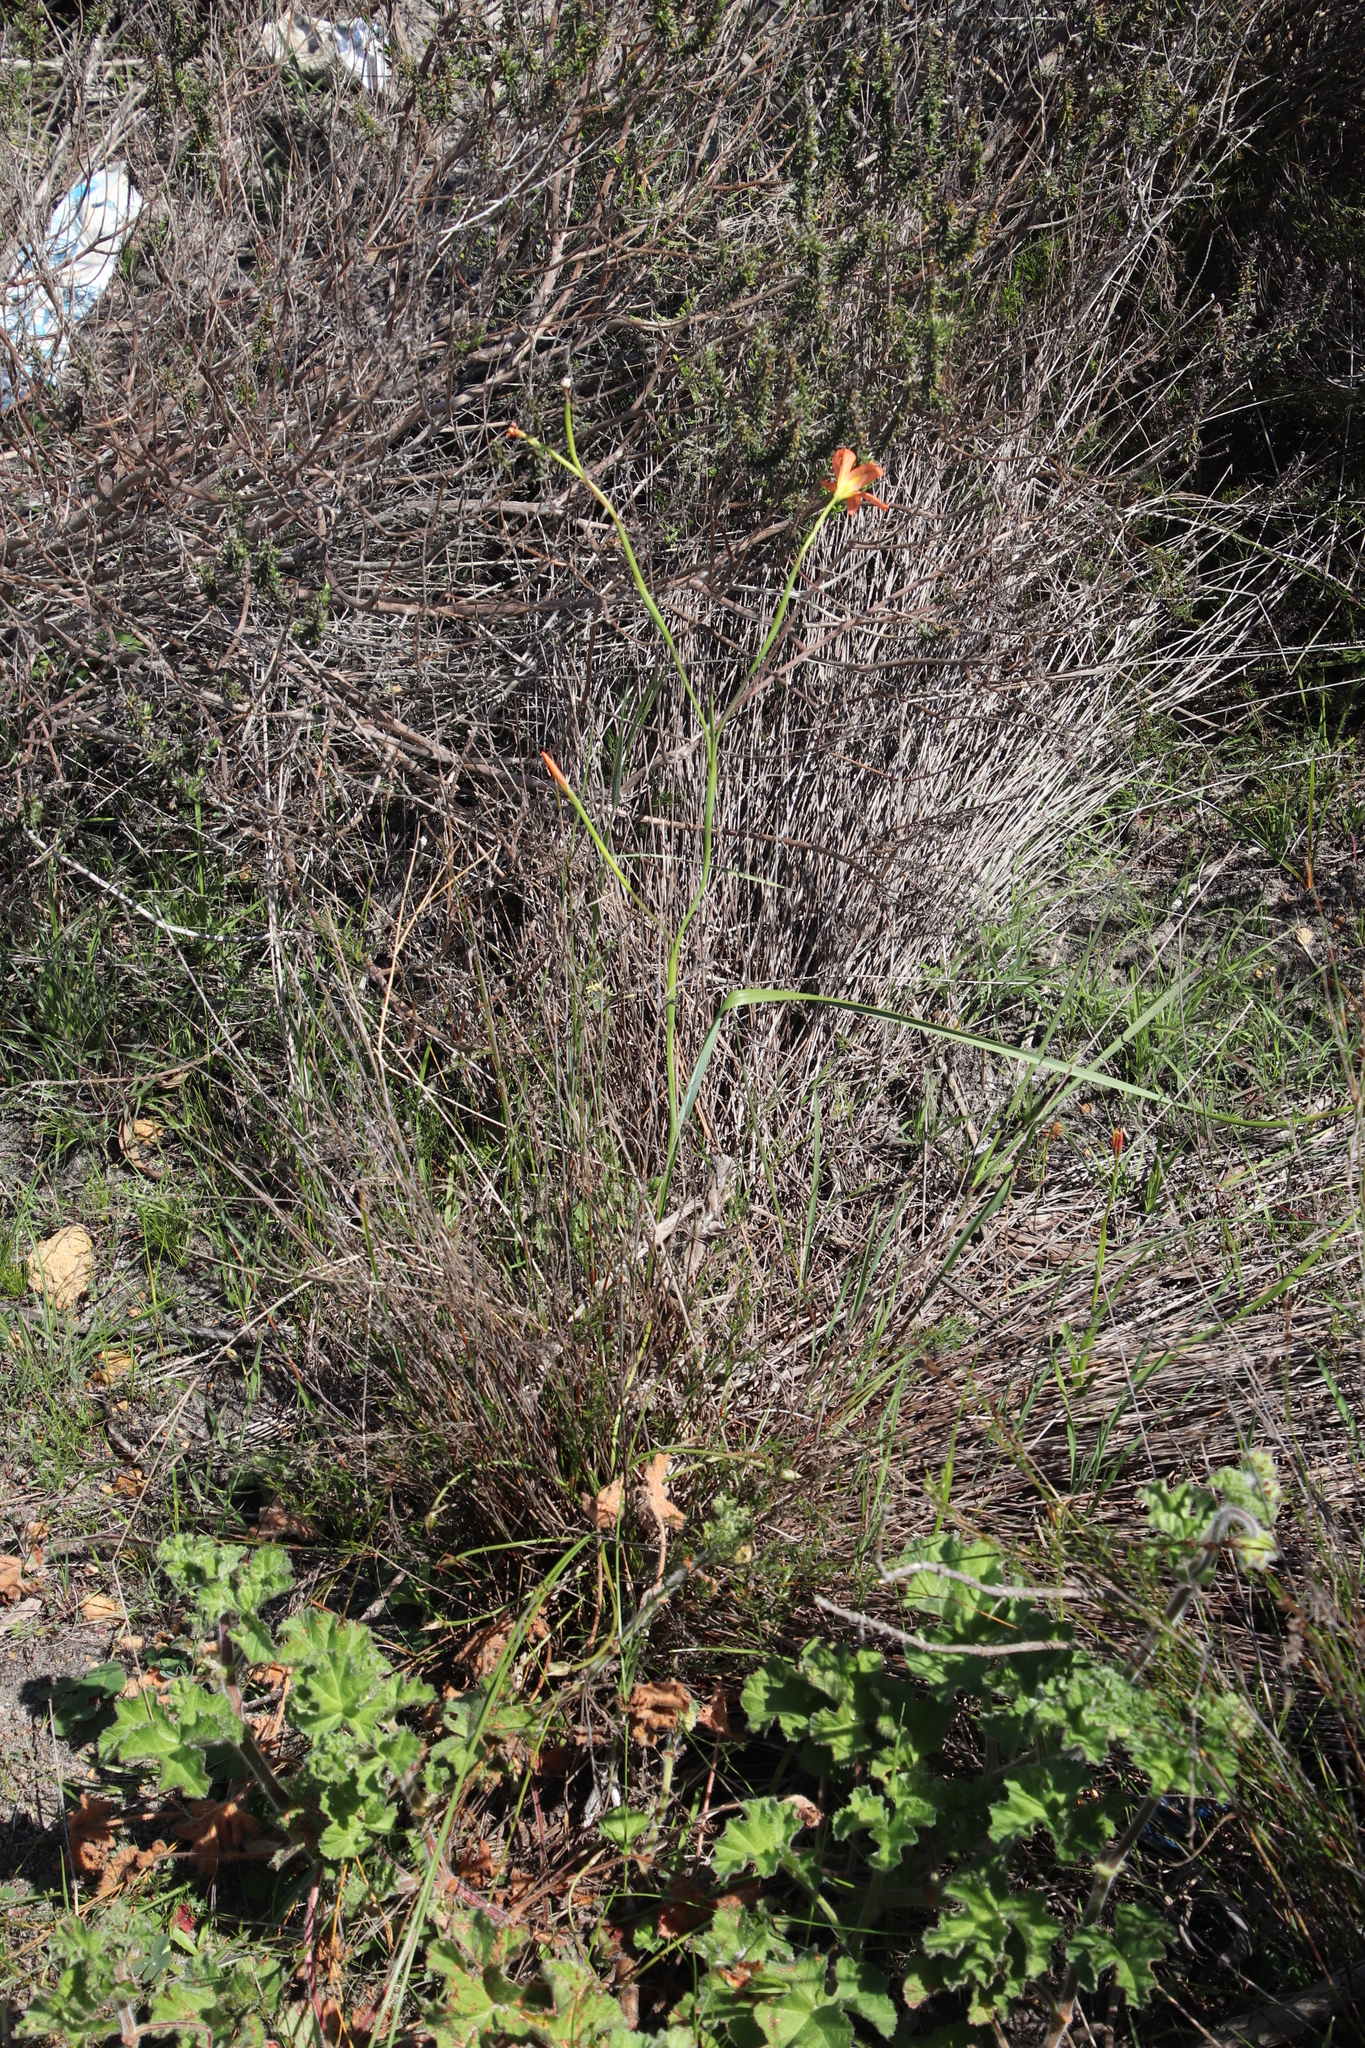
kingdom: Plantae
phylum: Tracheophyta
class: Liliopsida
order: Asparagales
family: Iridaceae
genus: Moraea
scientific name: Moraea flaccida
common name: One-leaf cape-tulip
